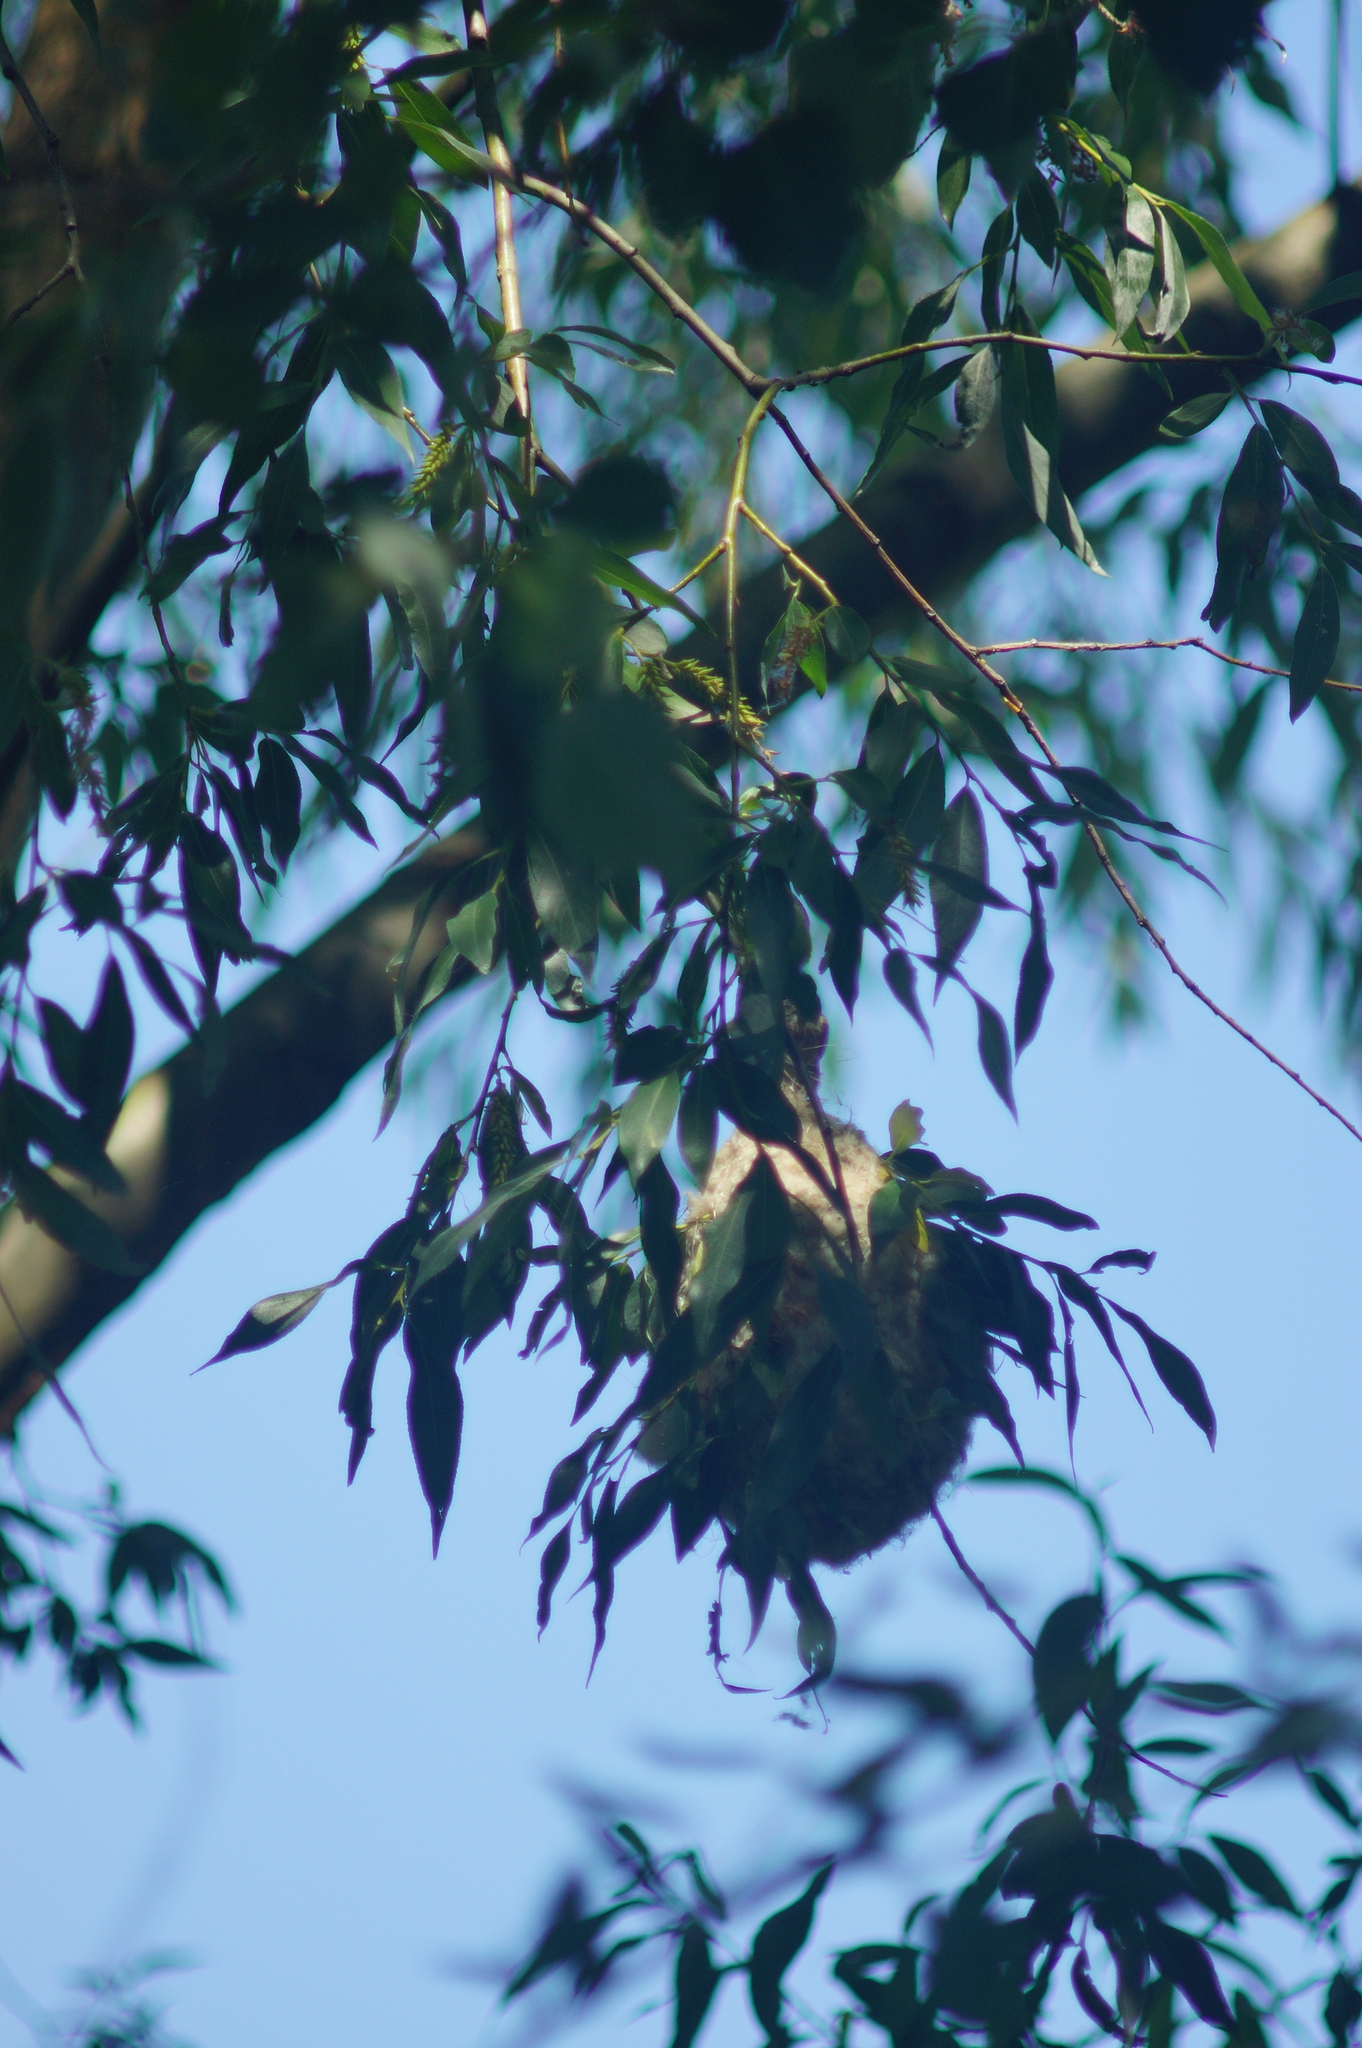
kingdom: Animalia
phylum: Chordata
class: Aves
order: Passeriformes
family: Remizidae
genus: Remiz
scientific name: Remiz pendulinus
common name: Eurasian penduline tit
